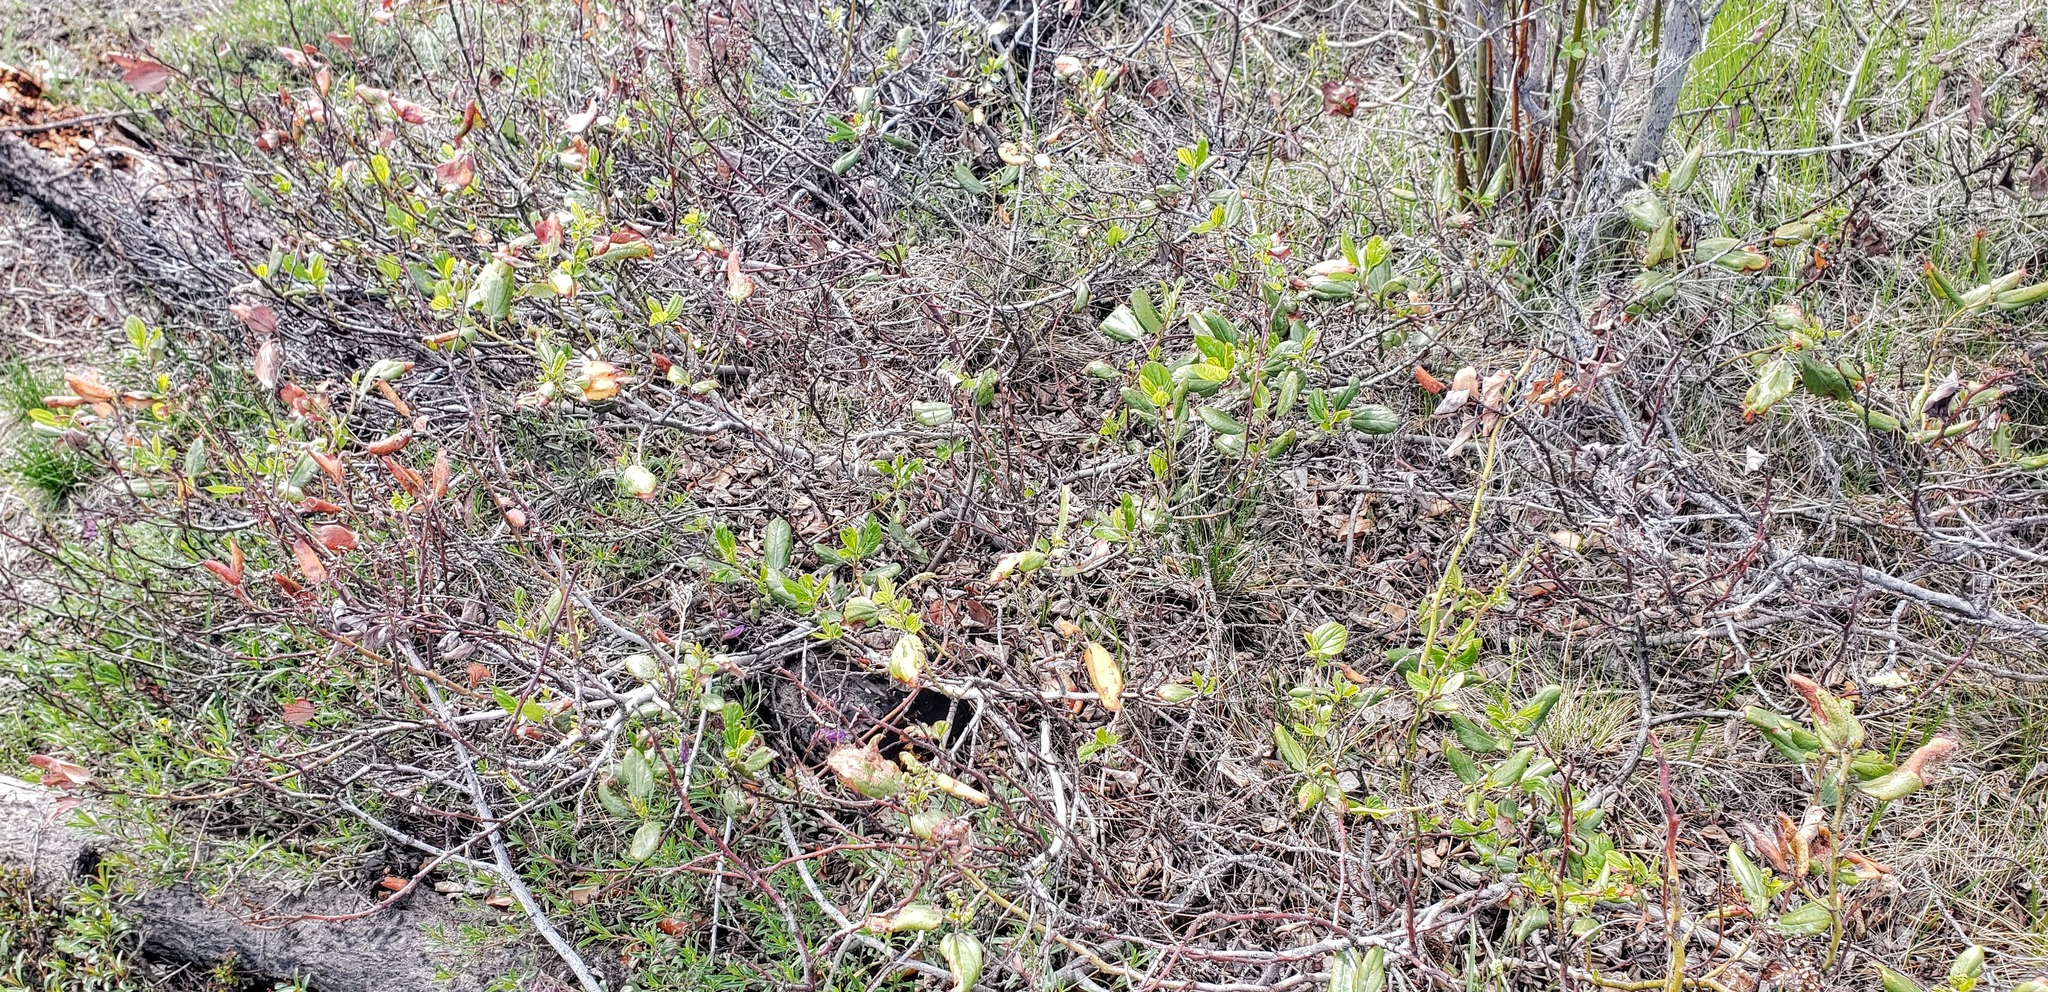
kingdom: Plantae
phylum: Tracheophyta
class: Magnoliopsida
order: Rosales
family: Rhamnaceae
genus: Ceanothus
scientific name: Ceanothus velutinus
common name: Snowbrush
